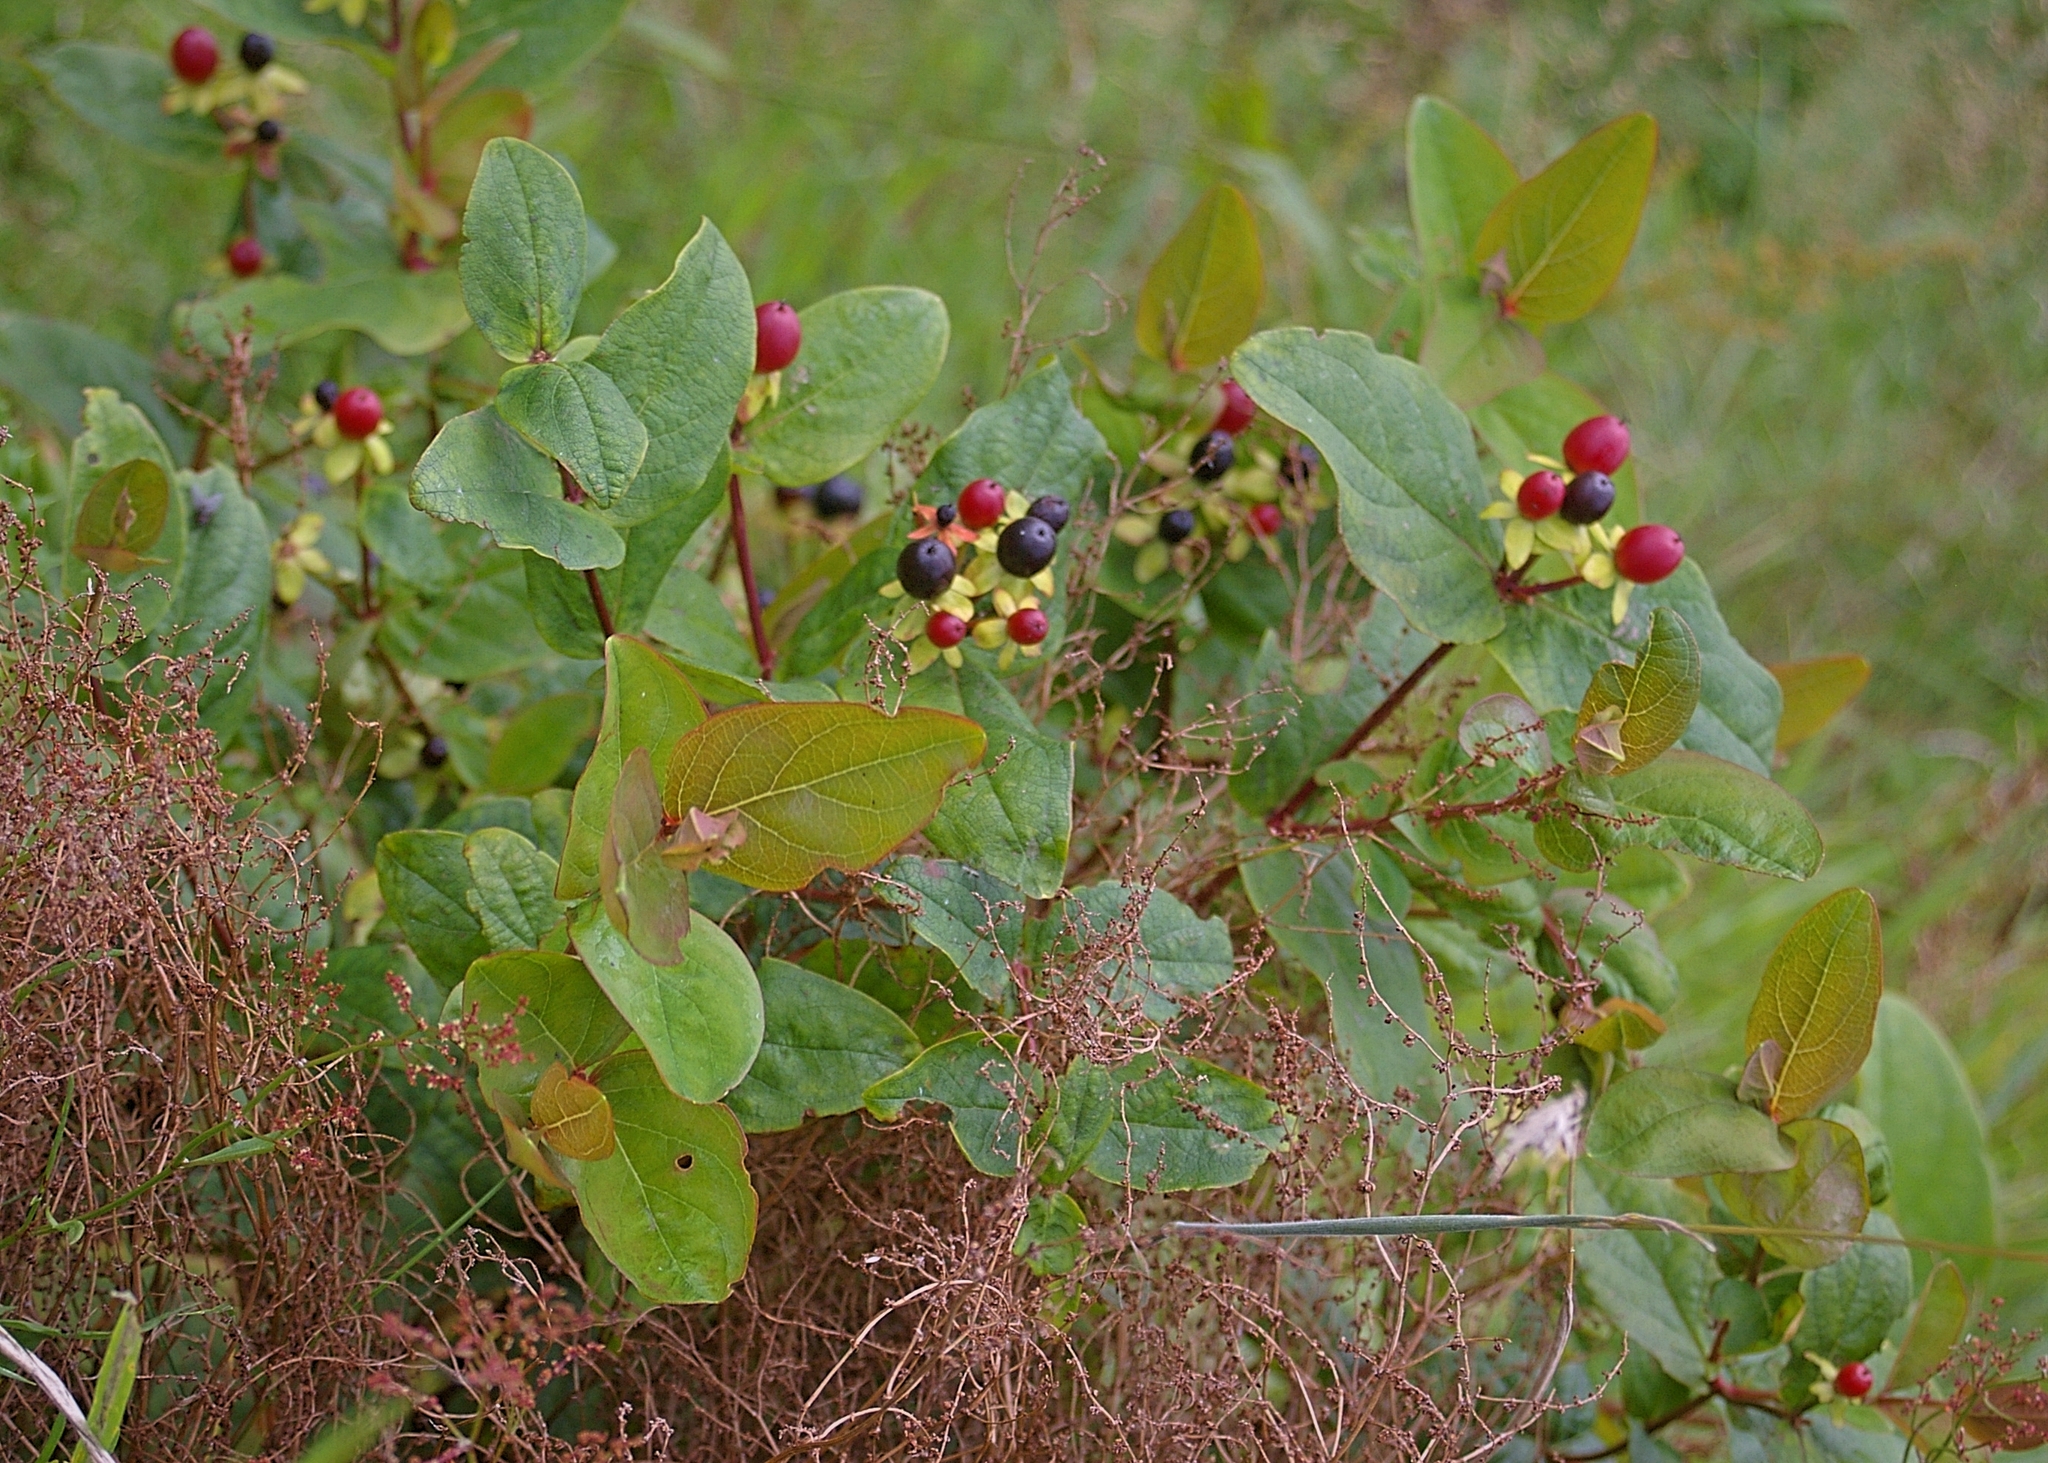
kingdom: Plantae
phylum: Tracheophyta
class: Magnoliopsida
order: Malpighiales
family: Hypericaceae
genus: Hypericum
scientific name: Hypericum androsaemum
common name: Sweet-amber
